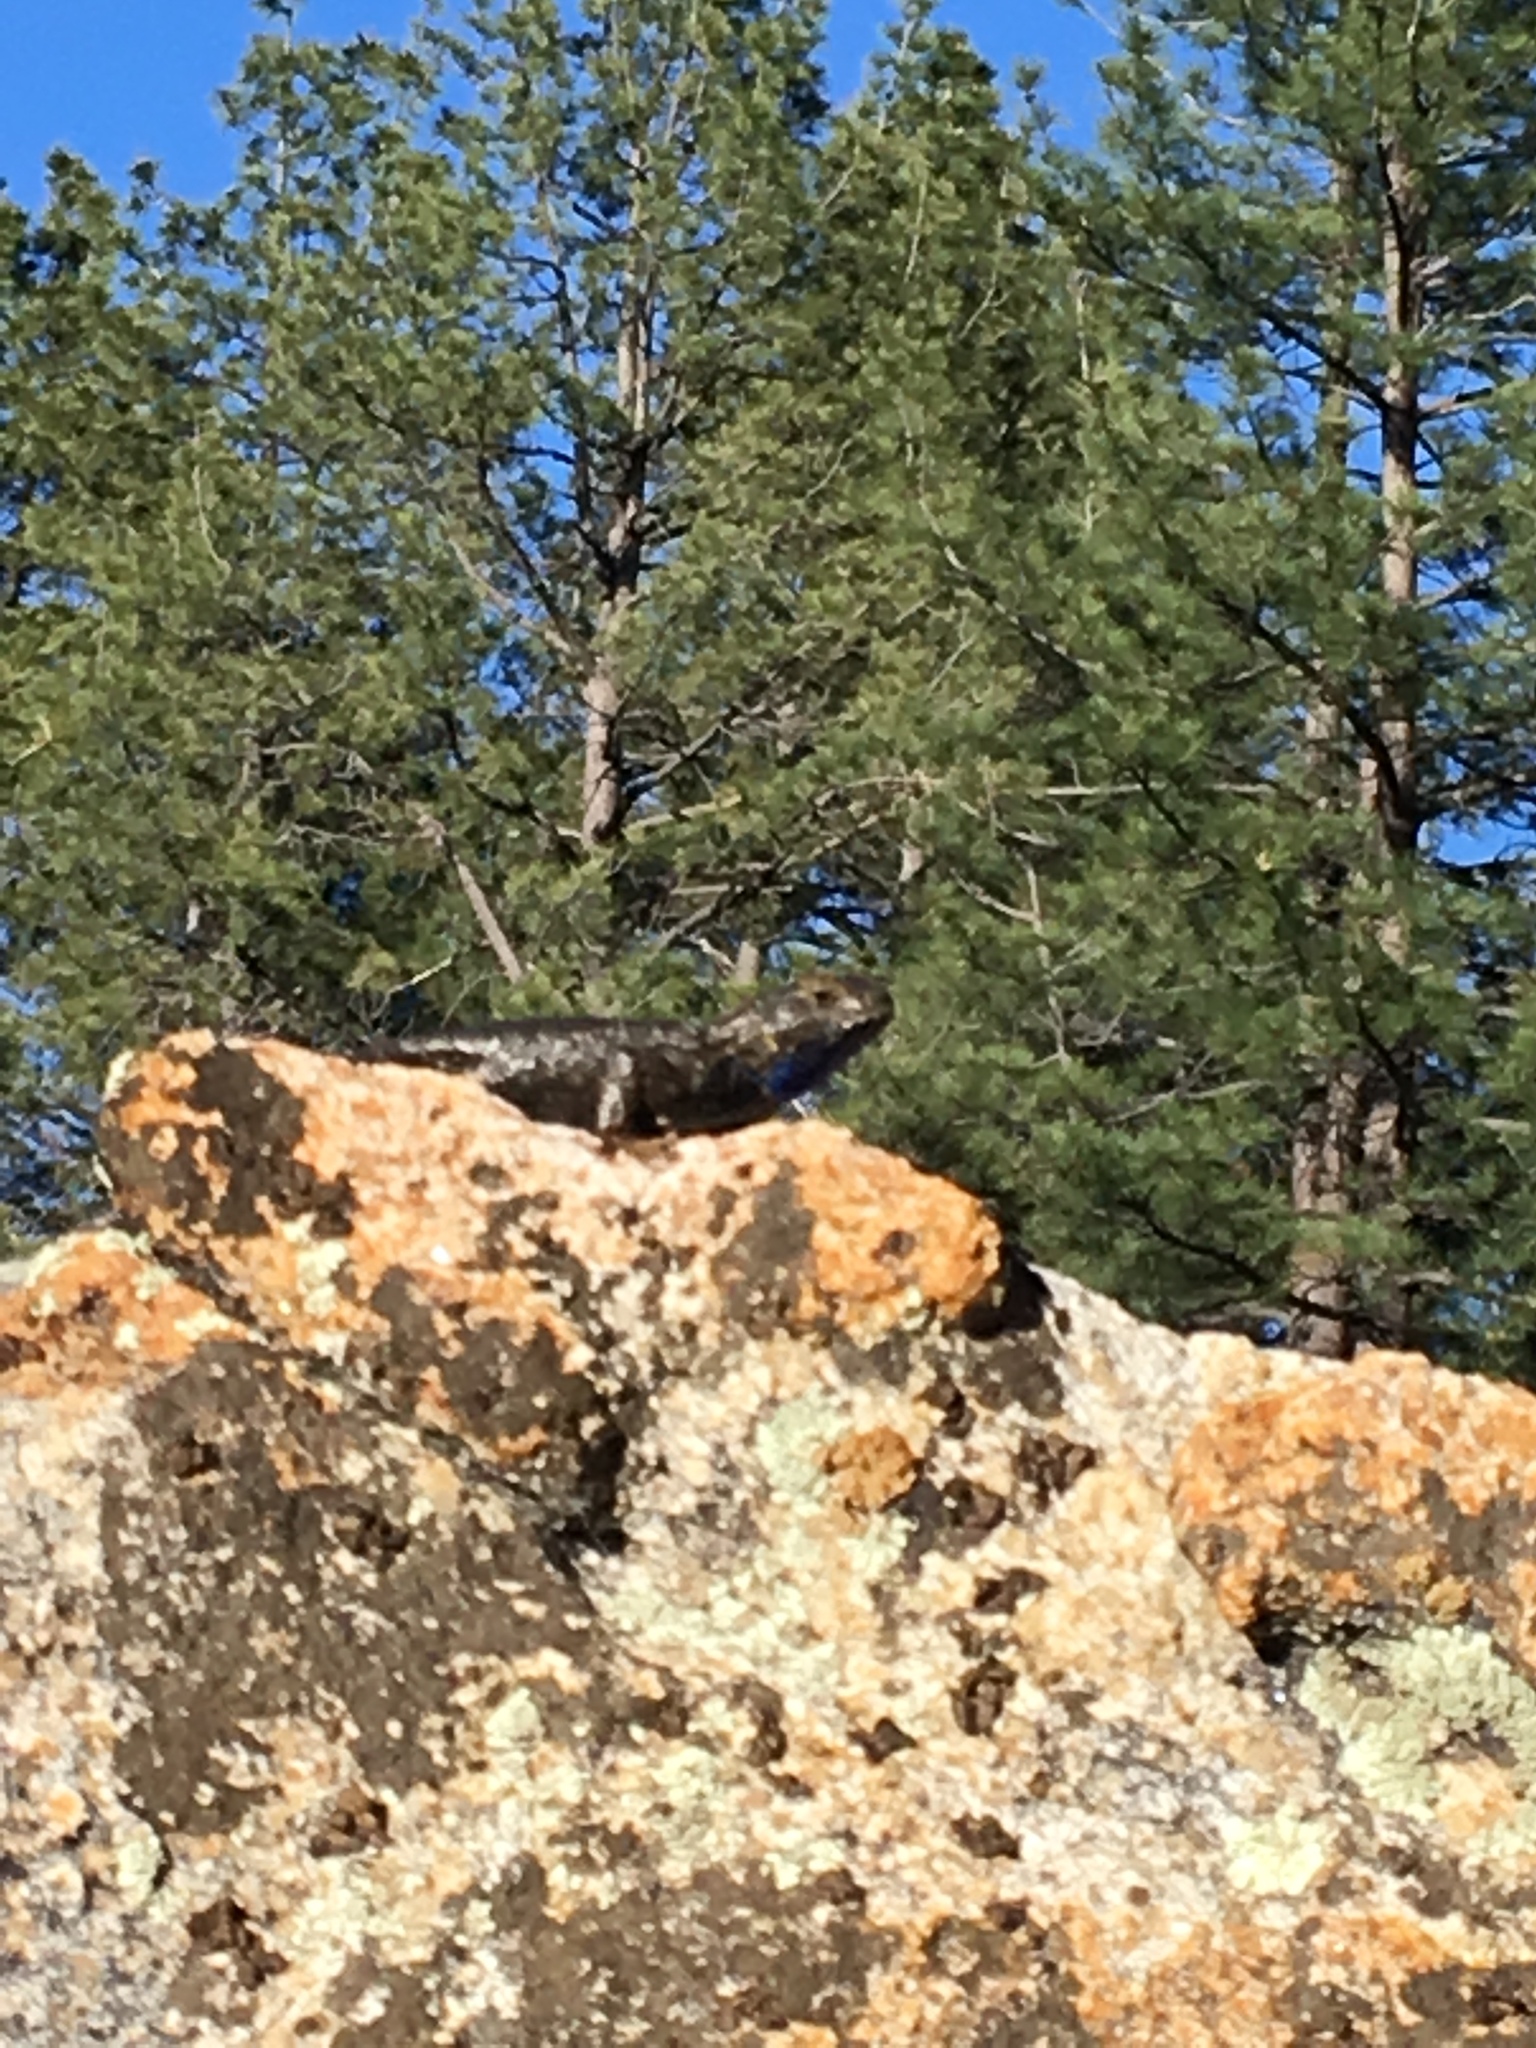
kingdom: Animalia
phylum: Chordata
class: Squamata
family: Phrynosomatidae
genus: Sceloporus
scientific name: Sceloporus occidentalis
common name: Western fence lizard
